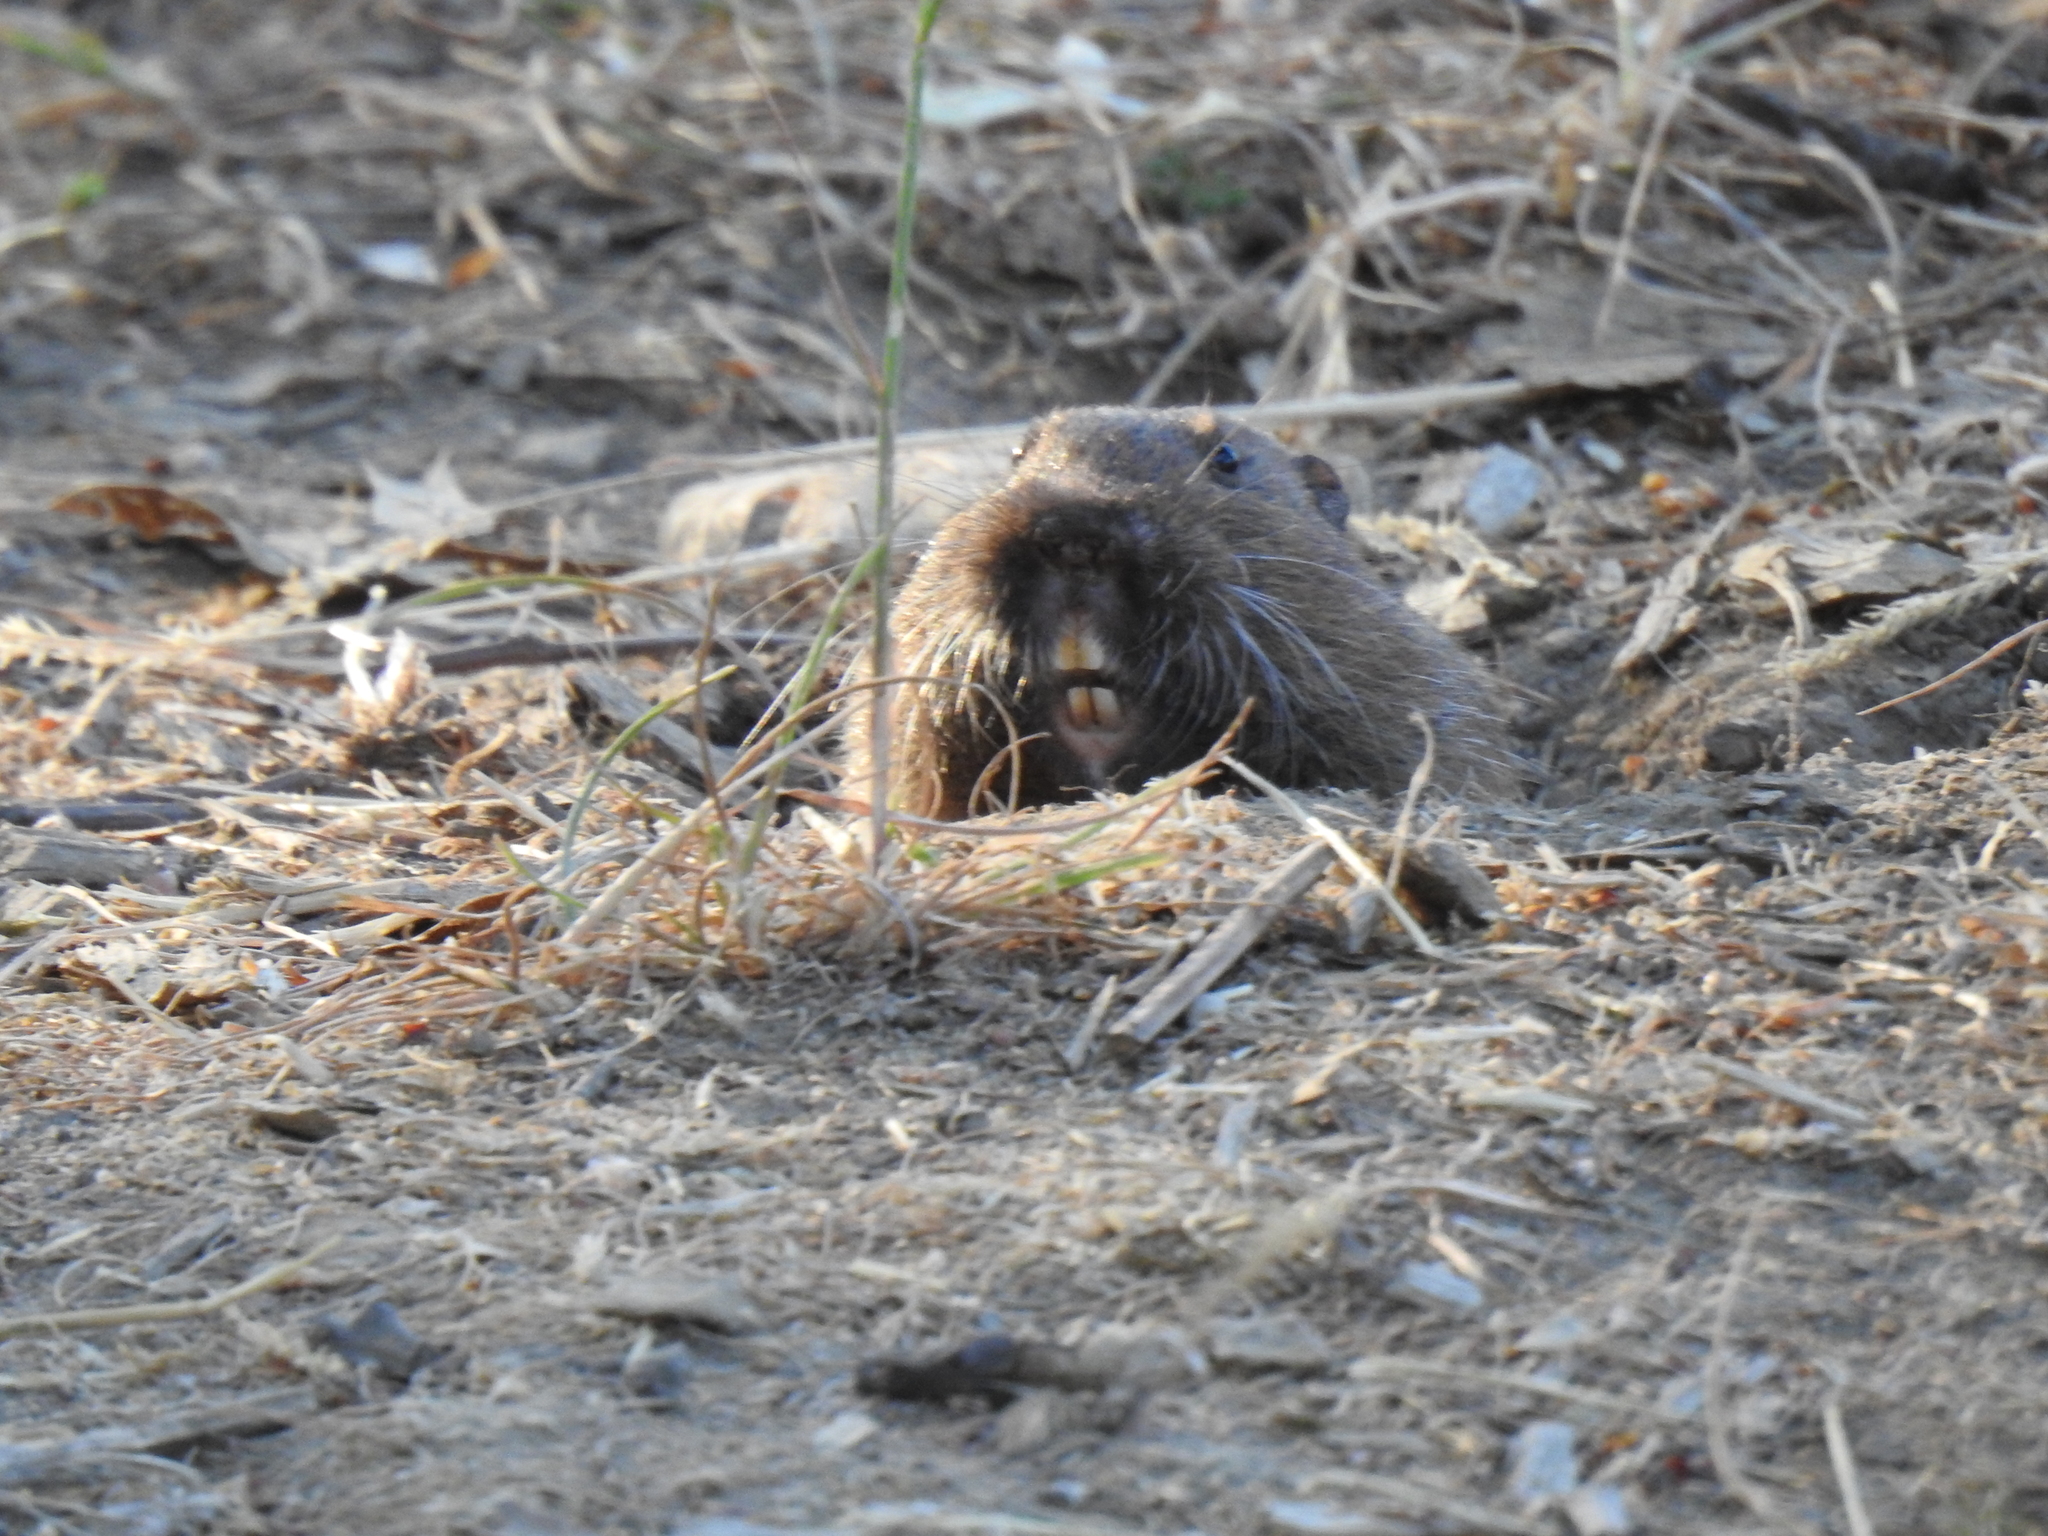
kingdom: Animalia
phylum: Chordata
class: Mammalia
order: Rodentia
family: Geomyidae
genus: Thomomys
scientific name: Thomomys bottae
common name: Botta's pocket gopher
